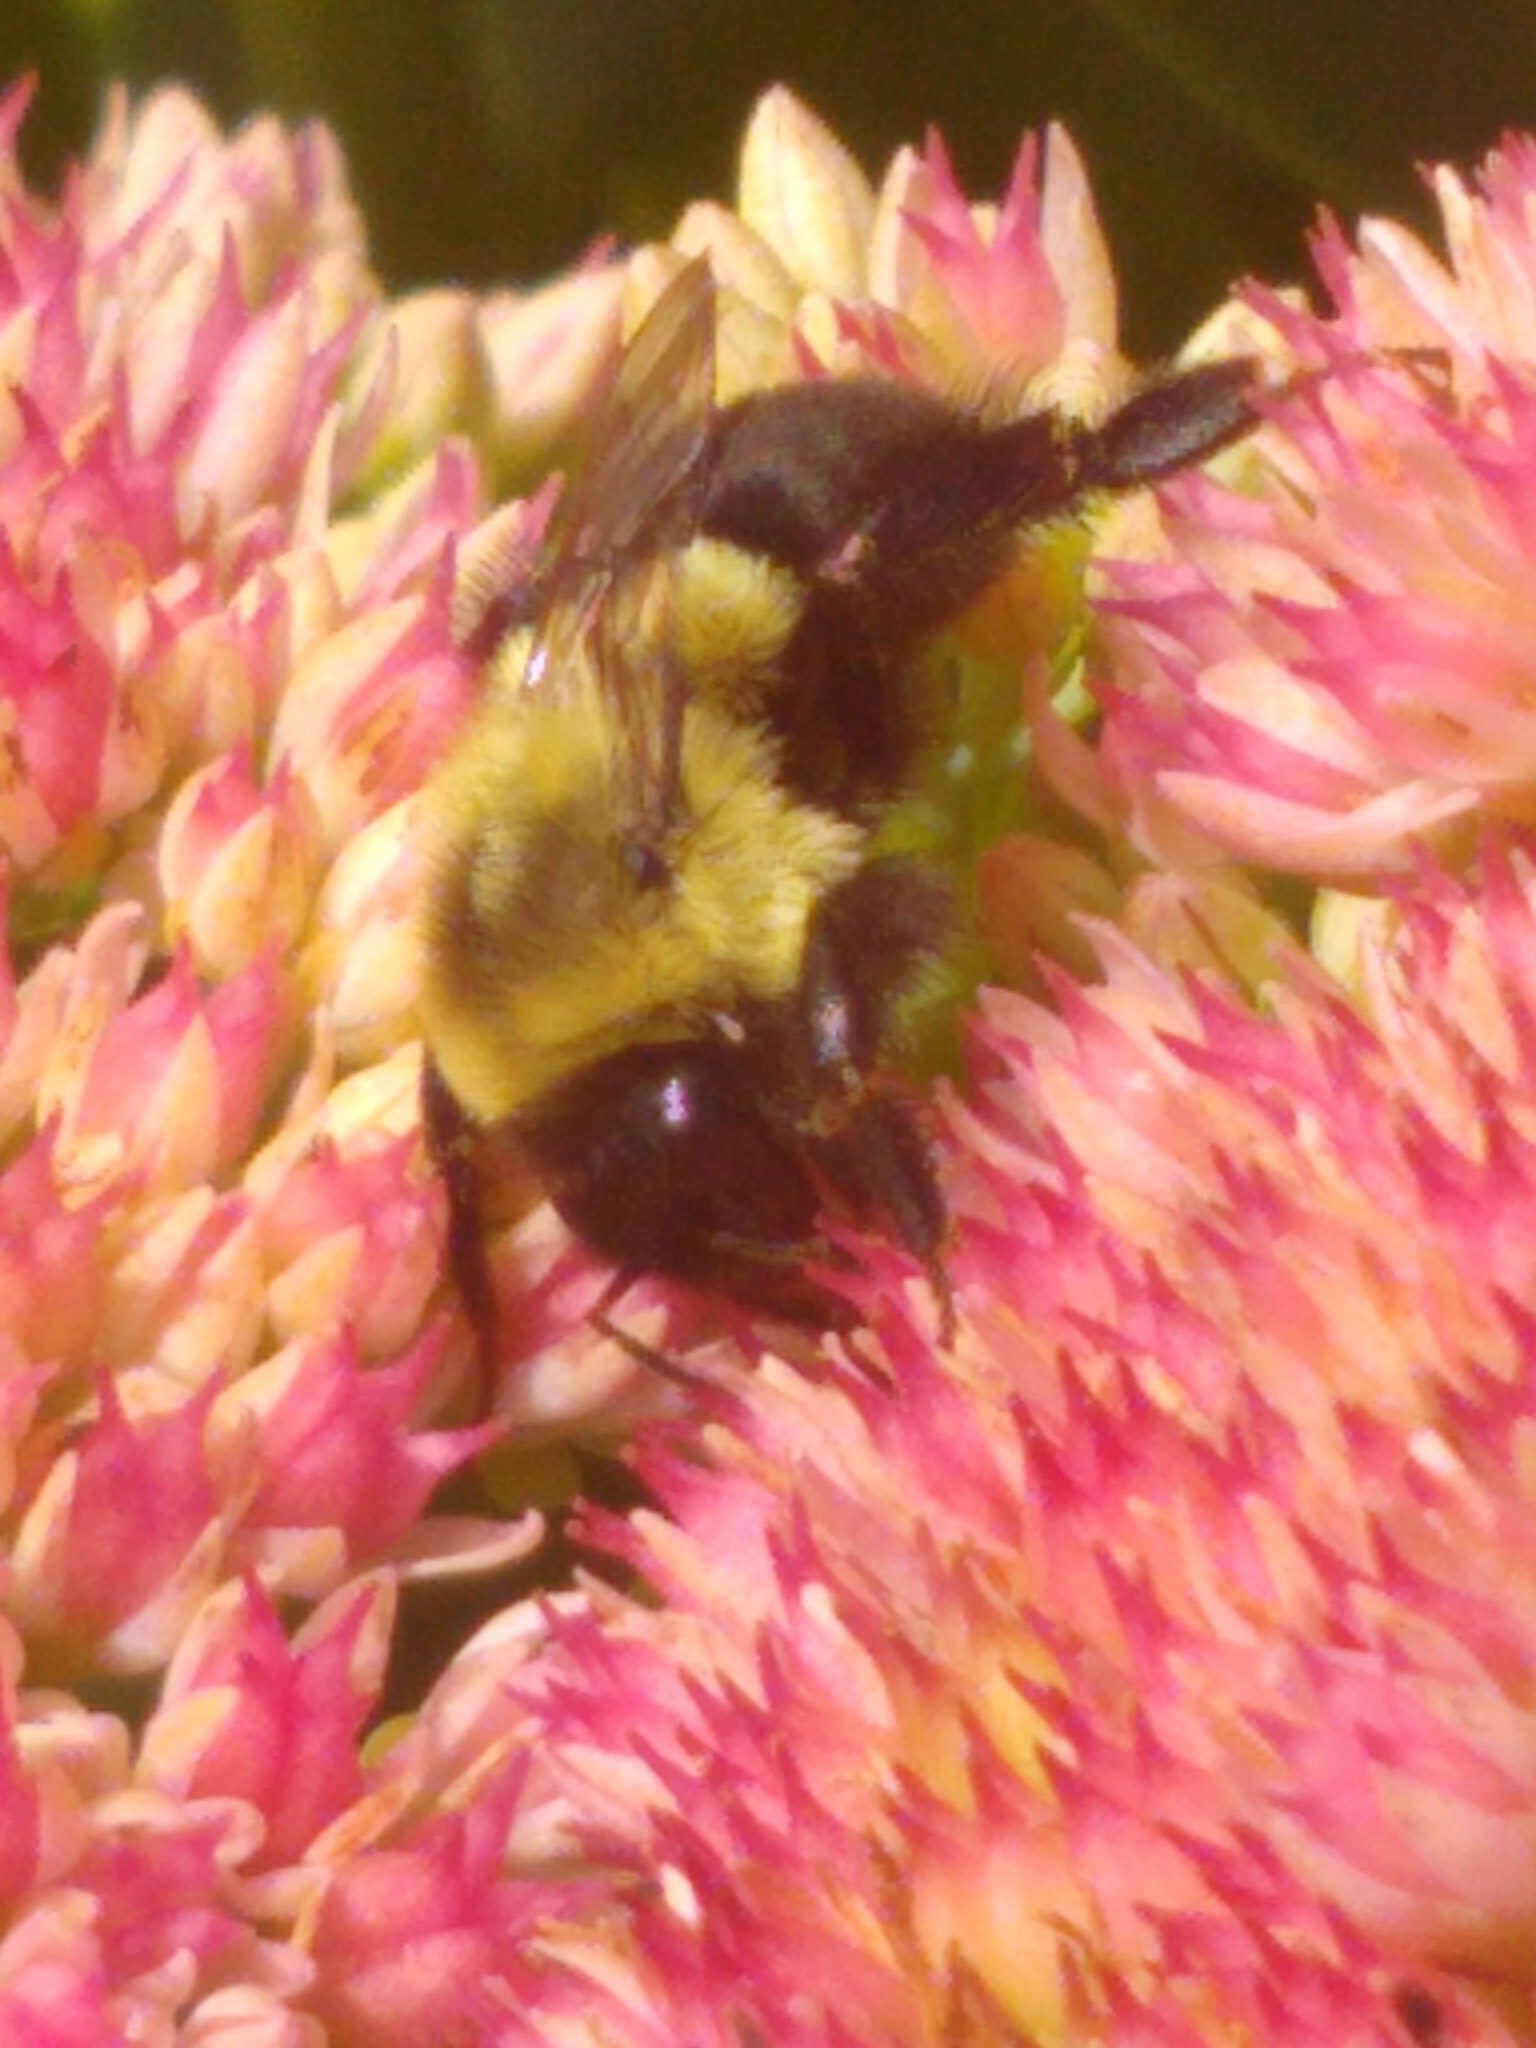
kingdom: Animalia
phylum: Arthropoda
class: Insecta
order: Hymenoptera
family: Apidae
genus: Bombus
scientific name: Bombus impatiens
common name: Common eastern bumble bee
